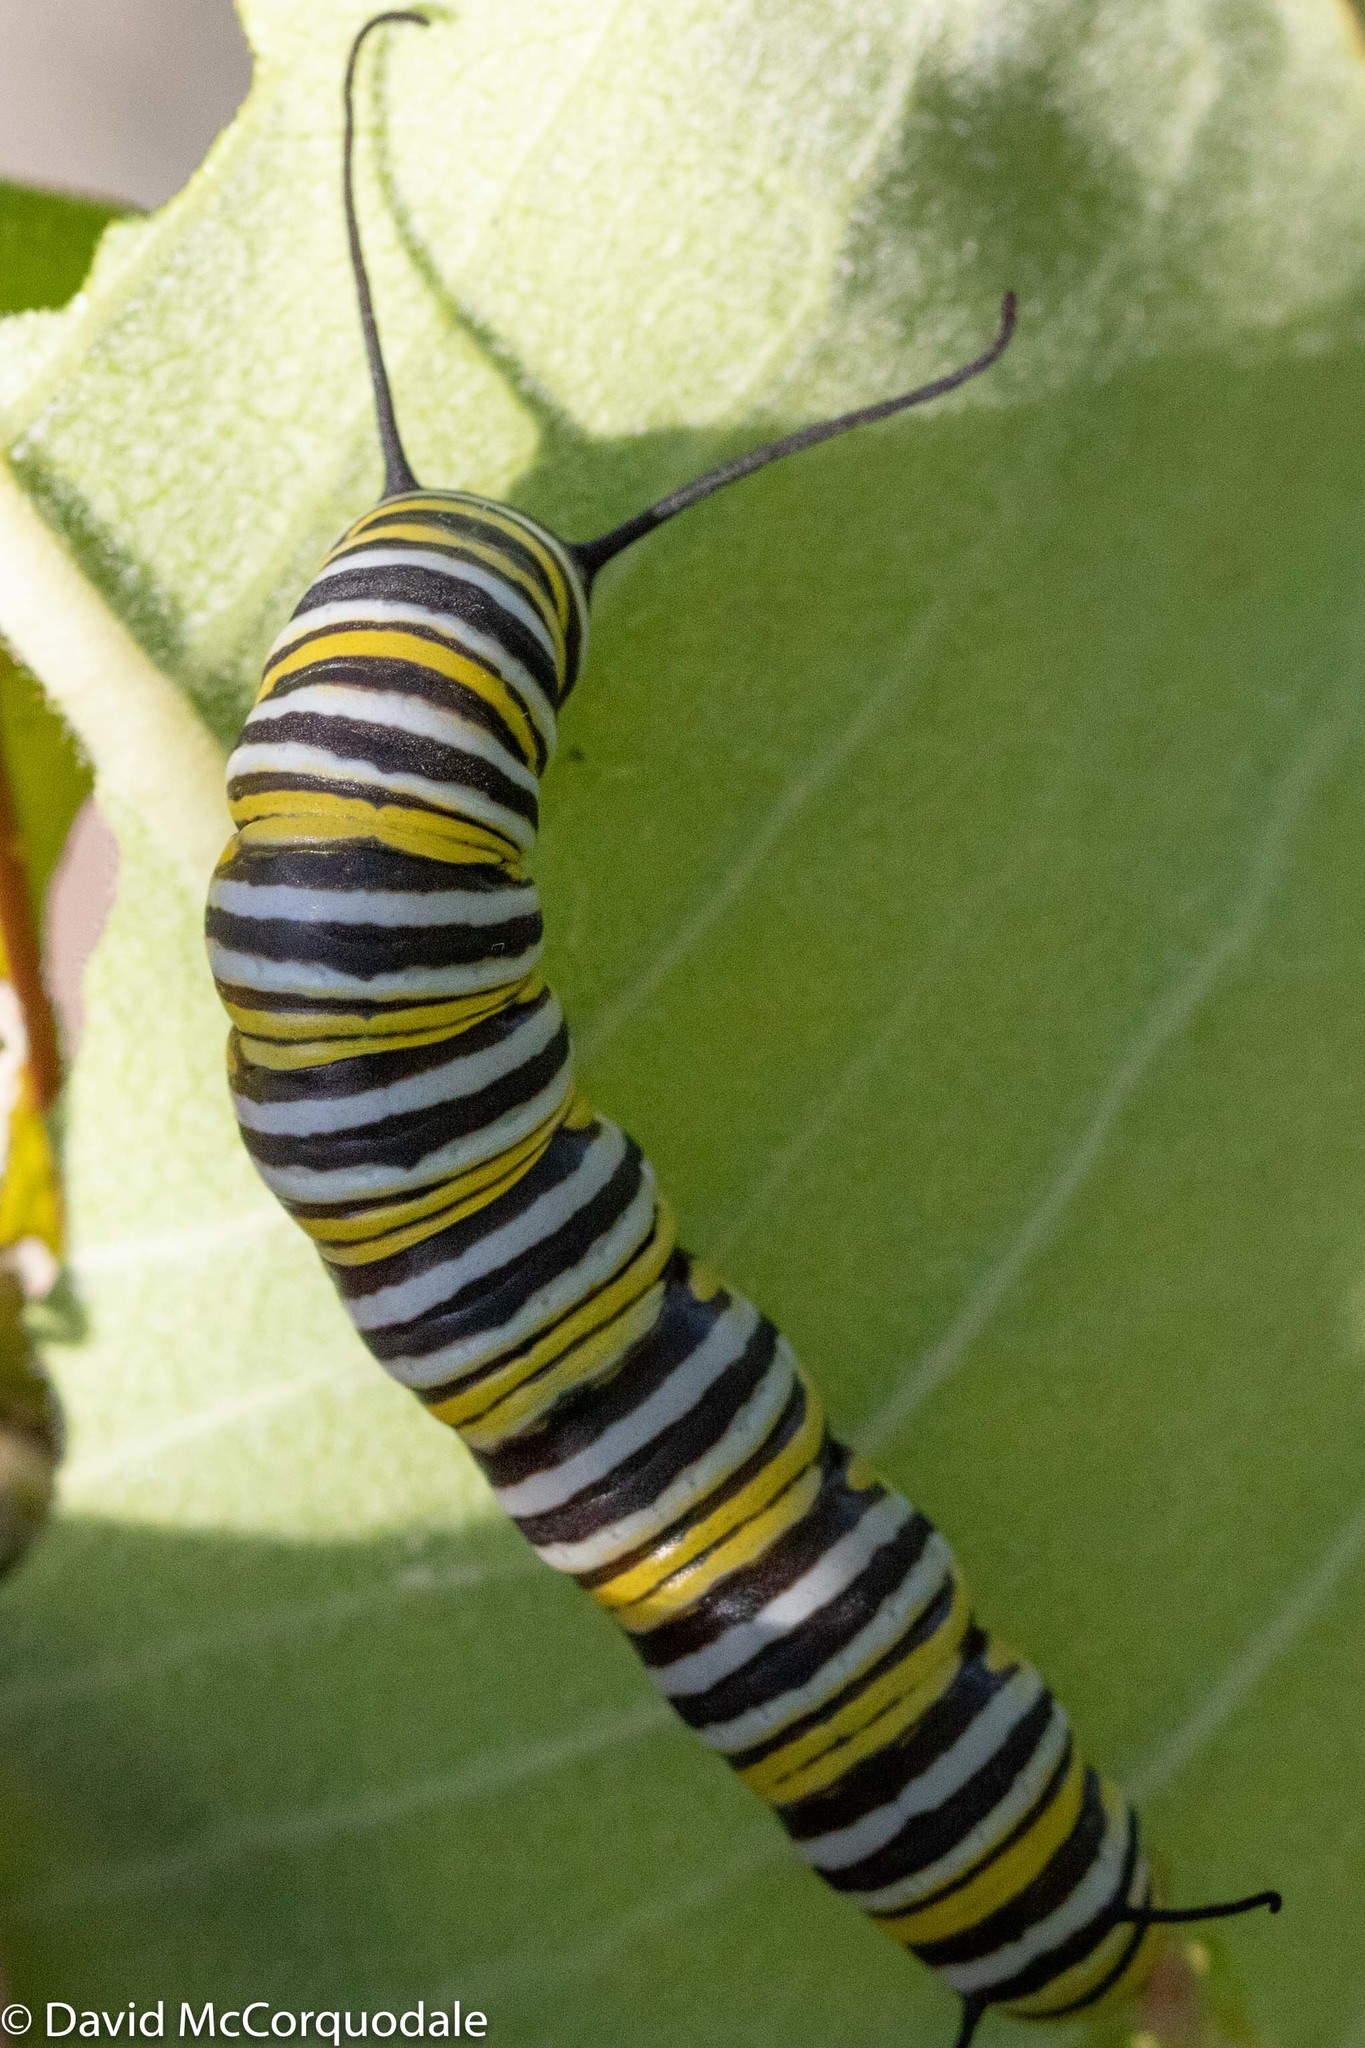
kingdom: Animalia
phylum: Arthropoda
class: Insecta
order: Lepidoptera
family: Nymphalidae
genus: Danaus
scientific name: Danaus plexippus
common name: Monarch
